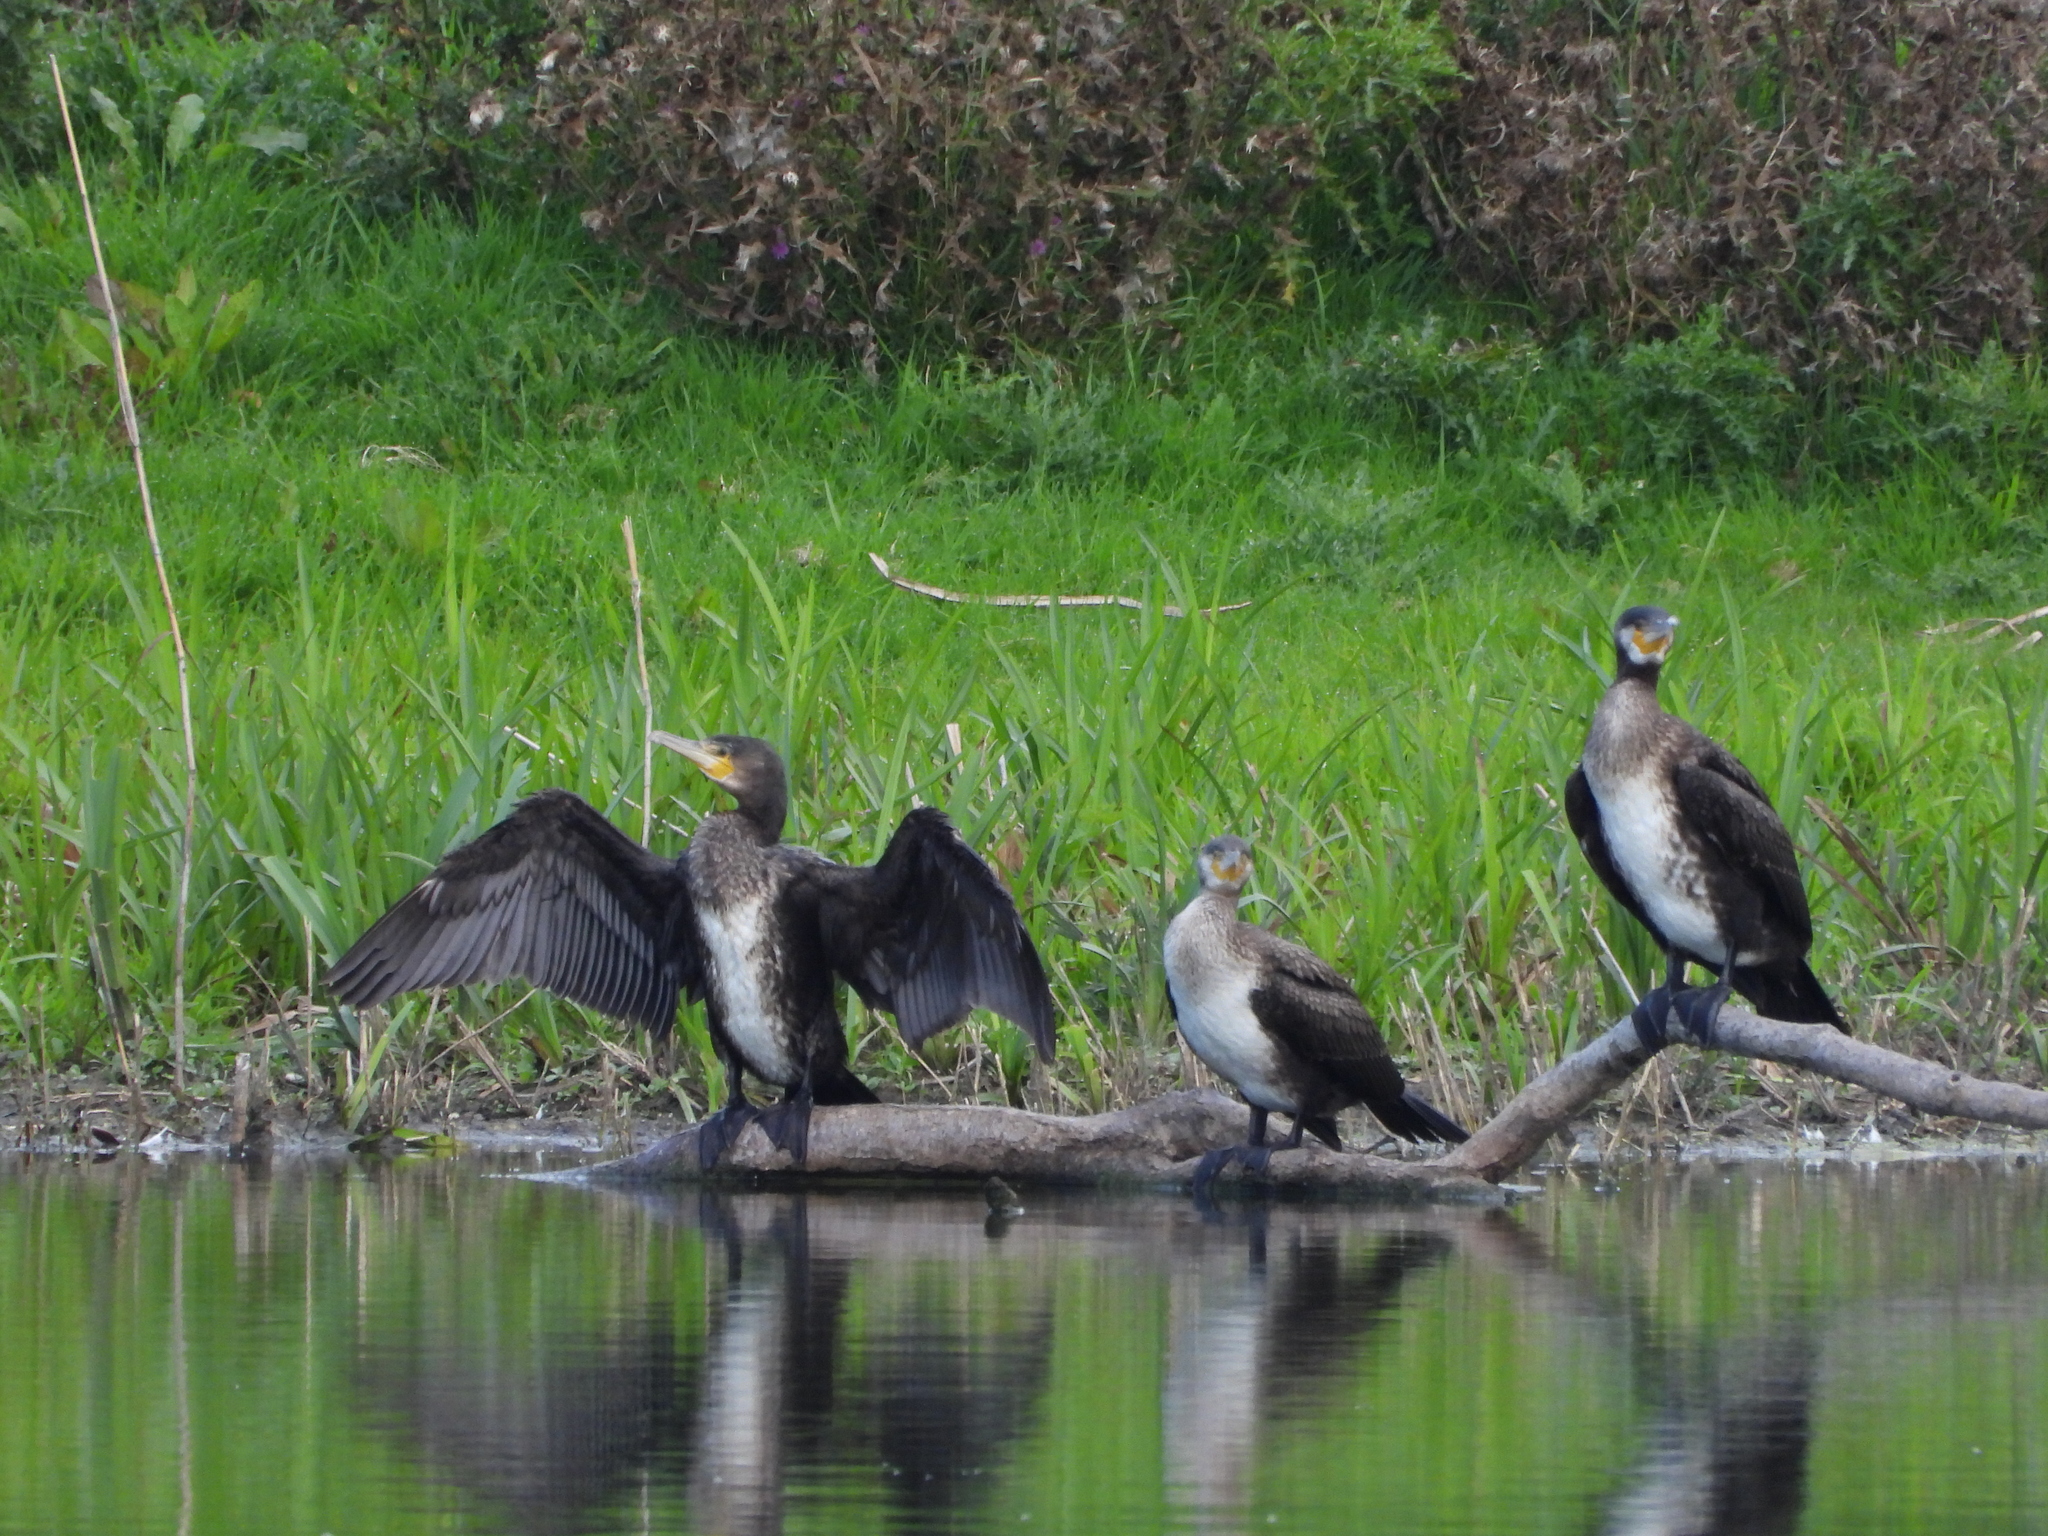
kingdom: Animalia
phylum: Chordata
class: Aves
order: Suliformes
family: Phalacrocoracidae
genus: Phalacrocorax
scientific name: Phalacrocorax carbo
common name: Great cormorant
